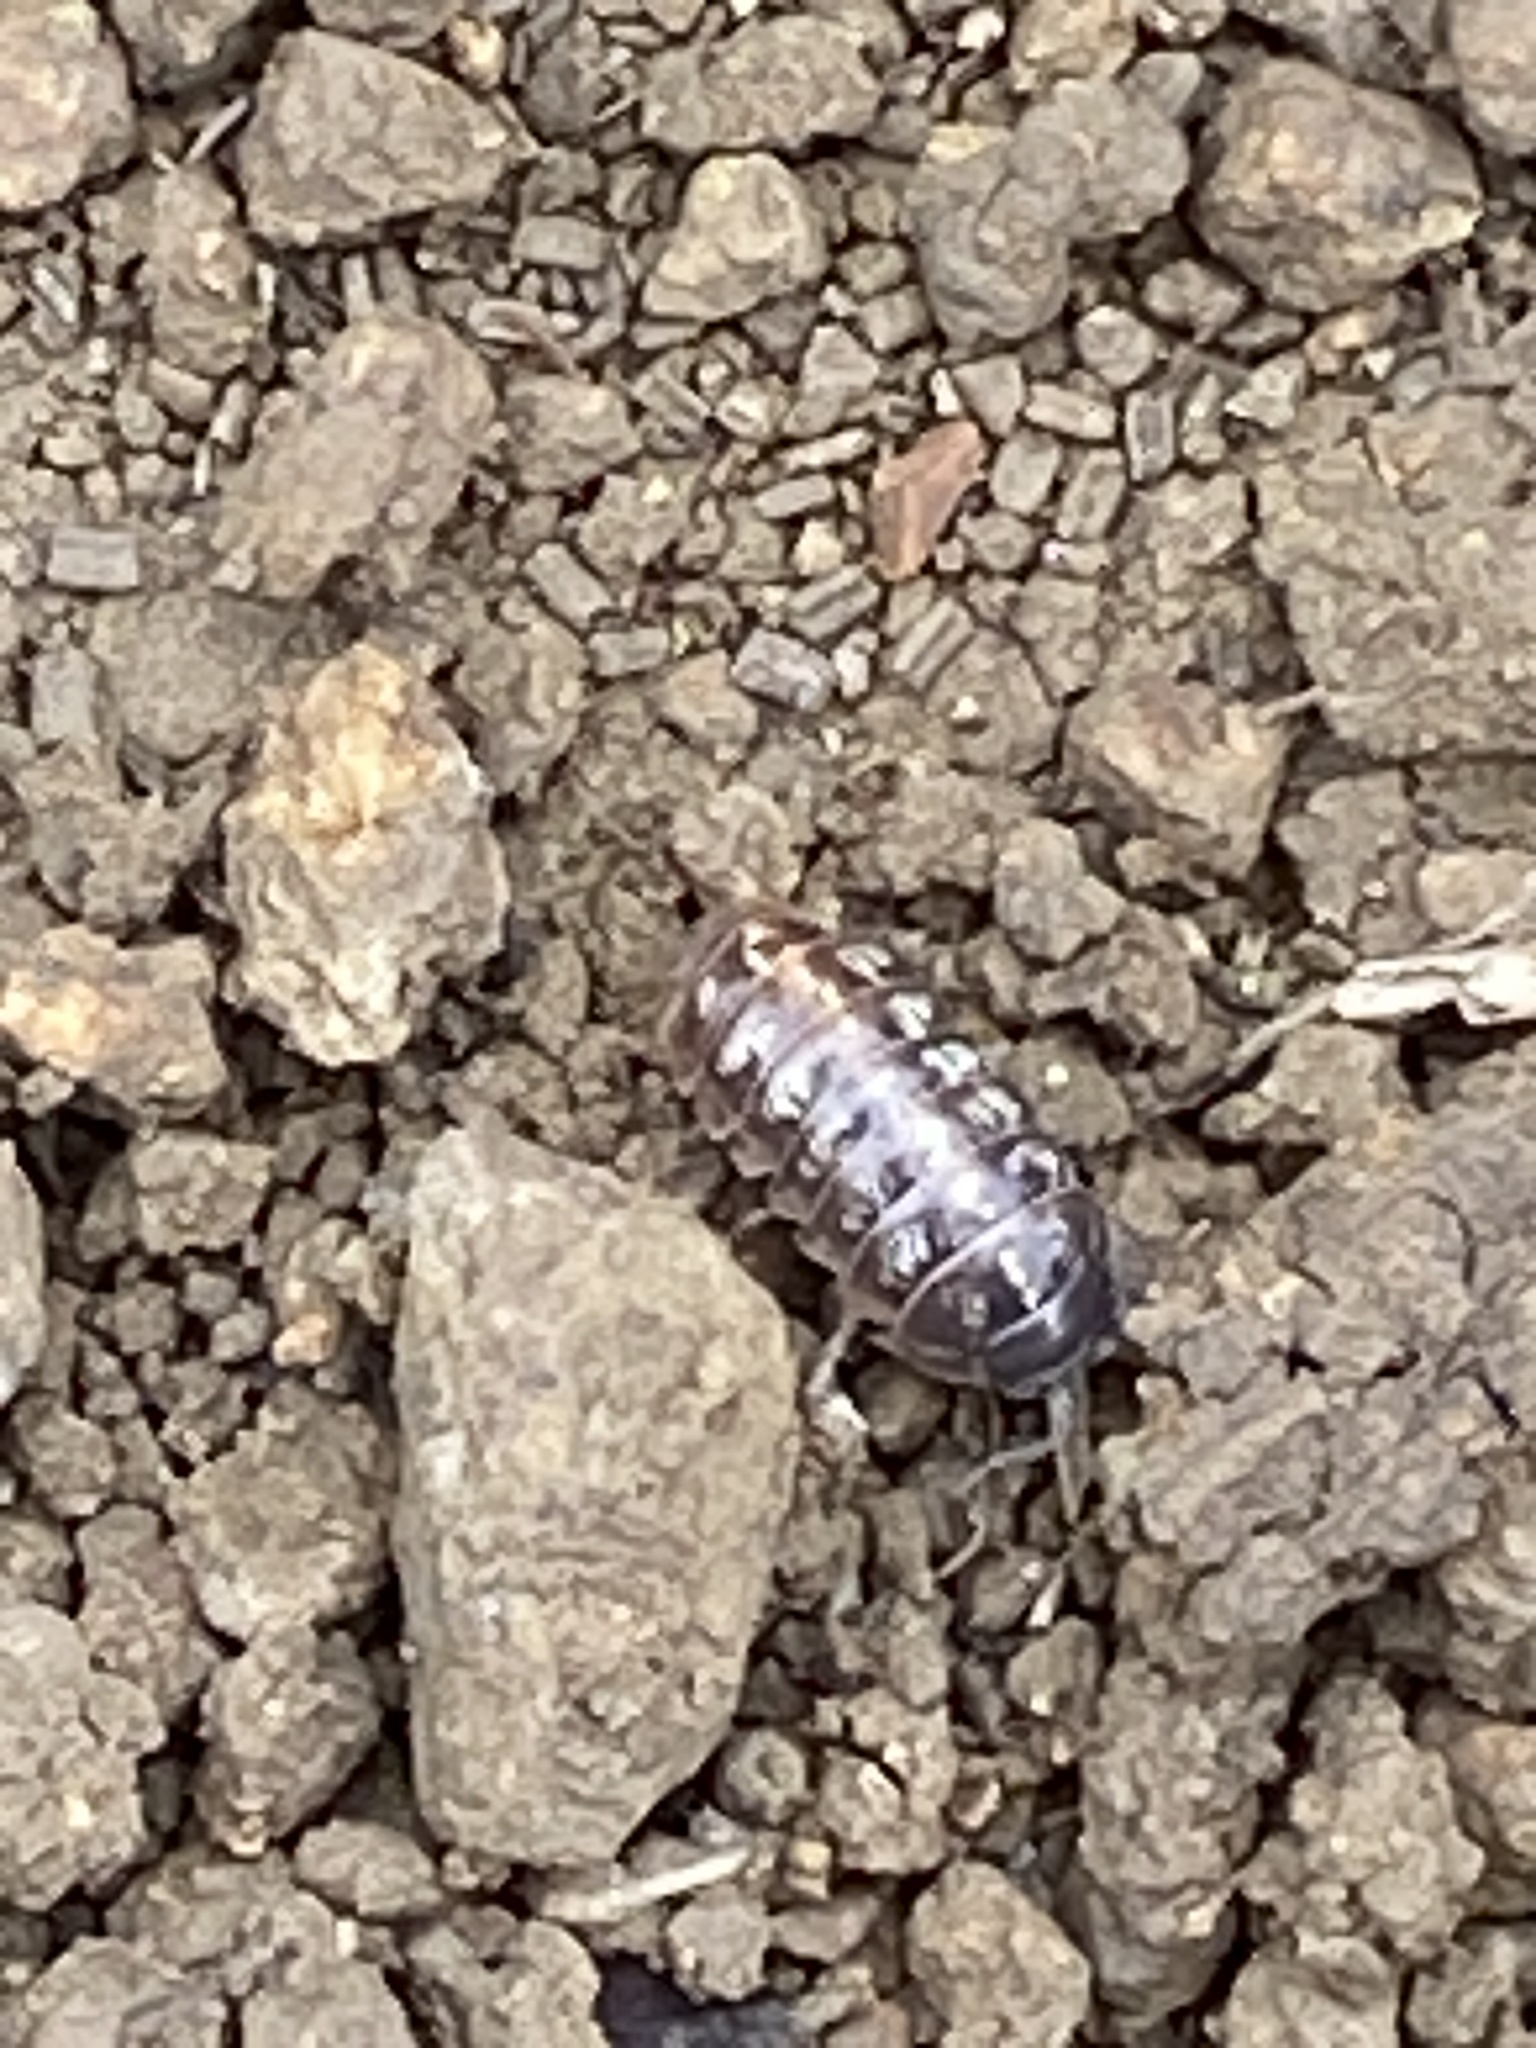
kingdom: Animalia
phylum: Arthropoda
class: Malacostraca
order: Isopoda
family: Armadillidiidae
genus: Armadillidium
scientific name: Armadillidium vulgare
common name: Common pill woodlouse
